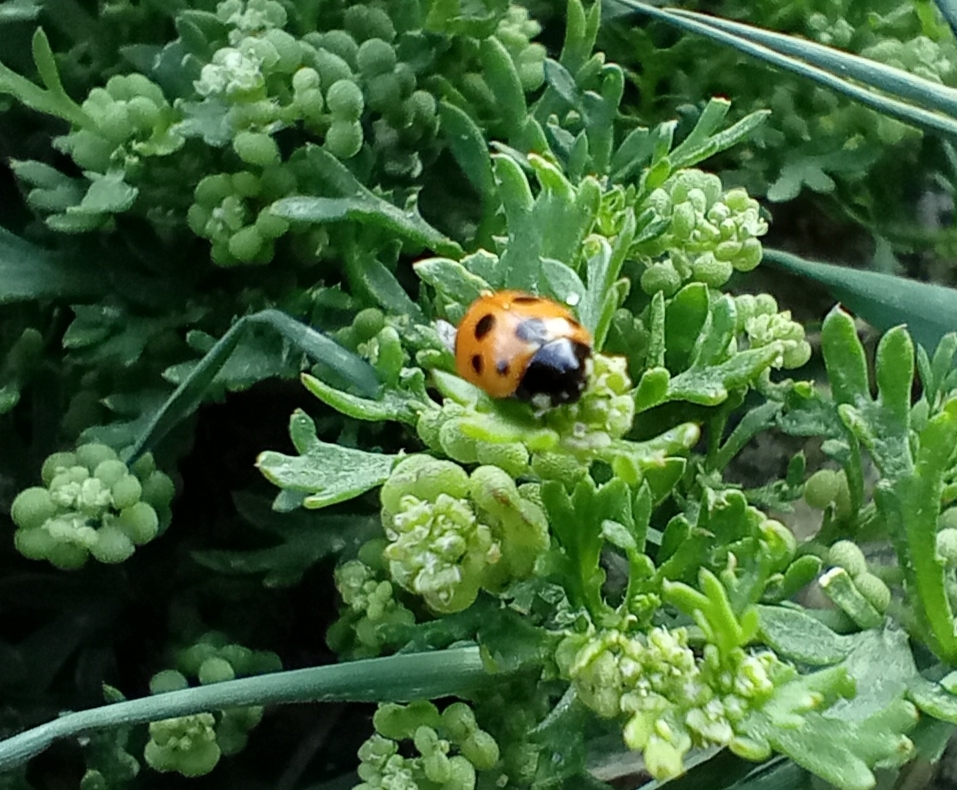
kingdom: Animalia
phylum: Arthropoda
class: Insecta
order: Coleoptera
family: Coccinellidae
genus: Coccinella
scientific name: Coccinella undecimpunctata
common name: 11-spot ladybird
